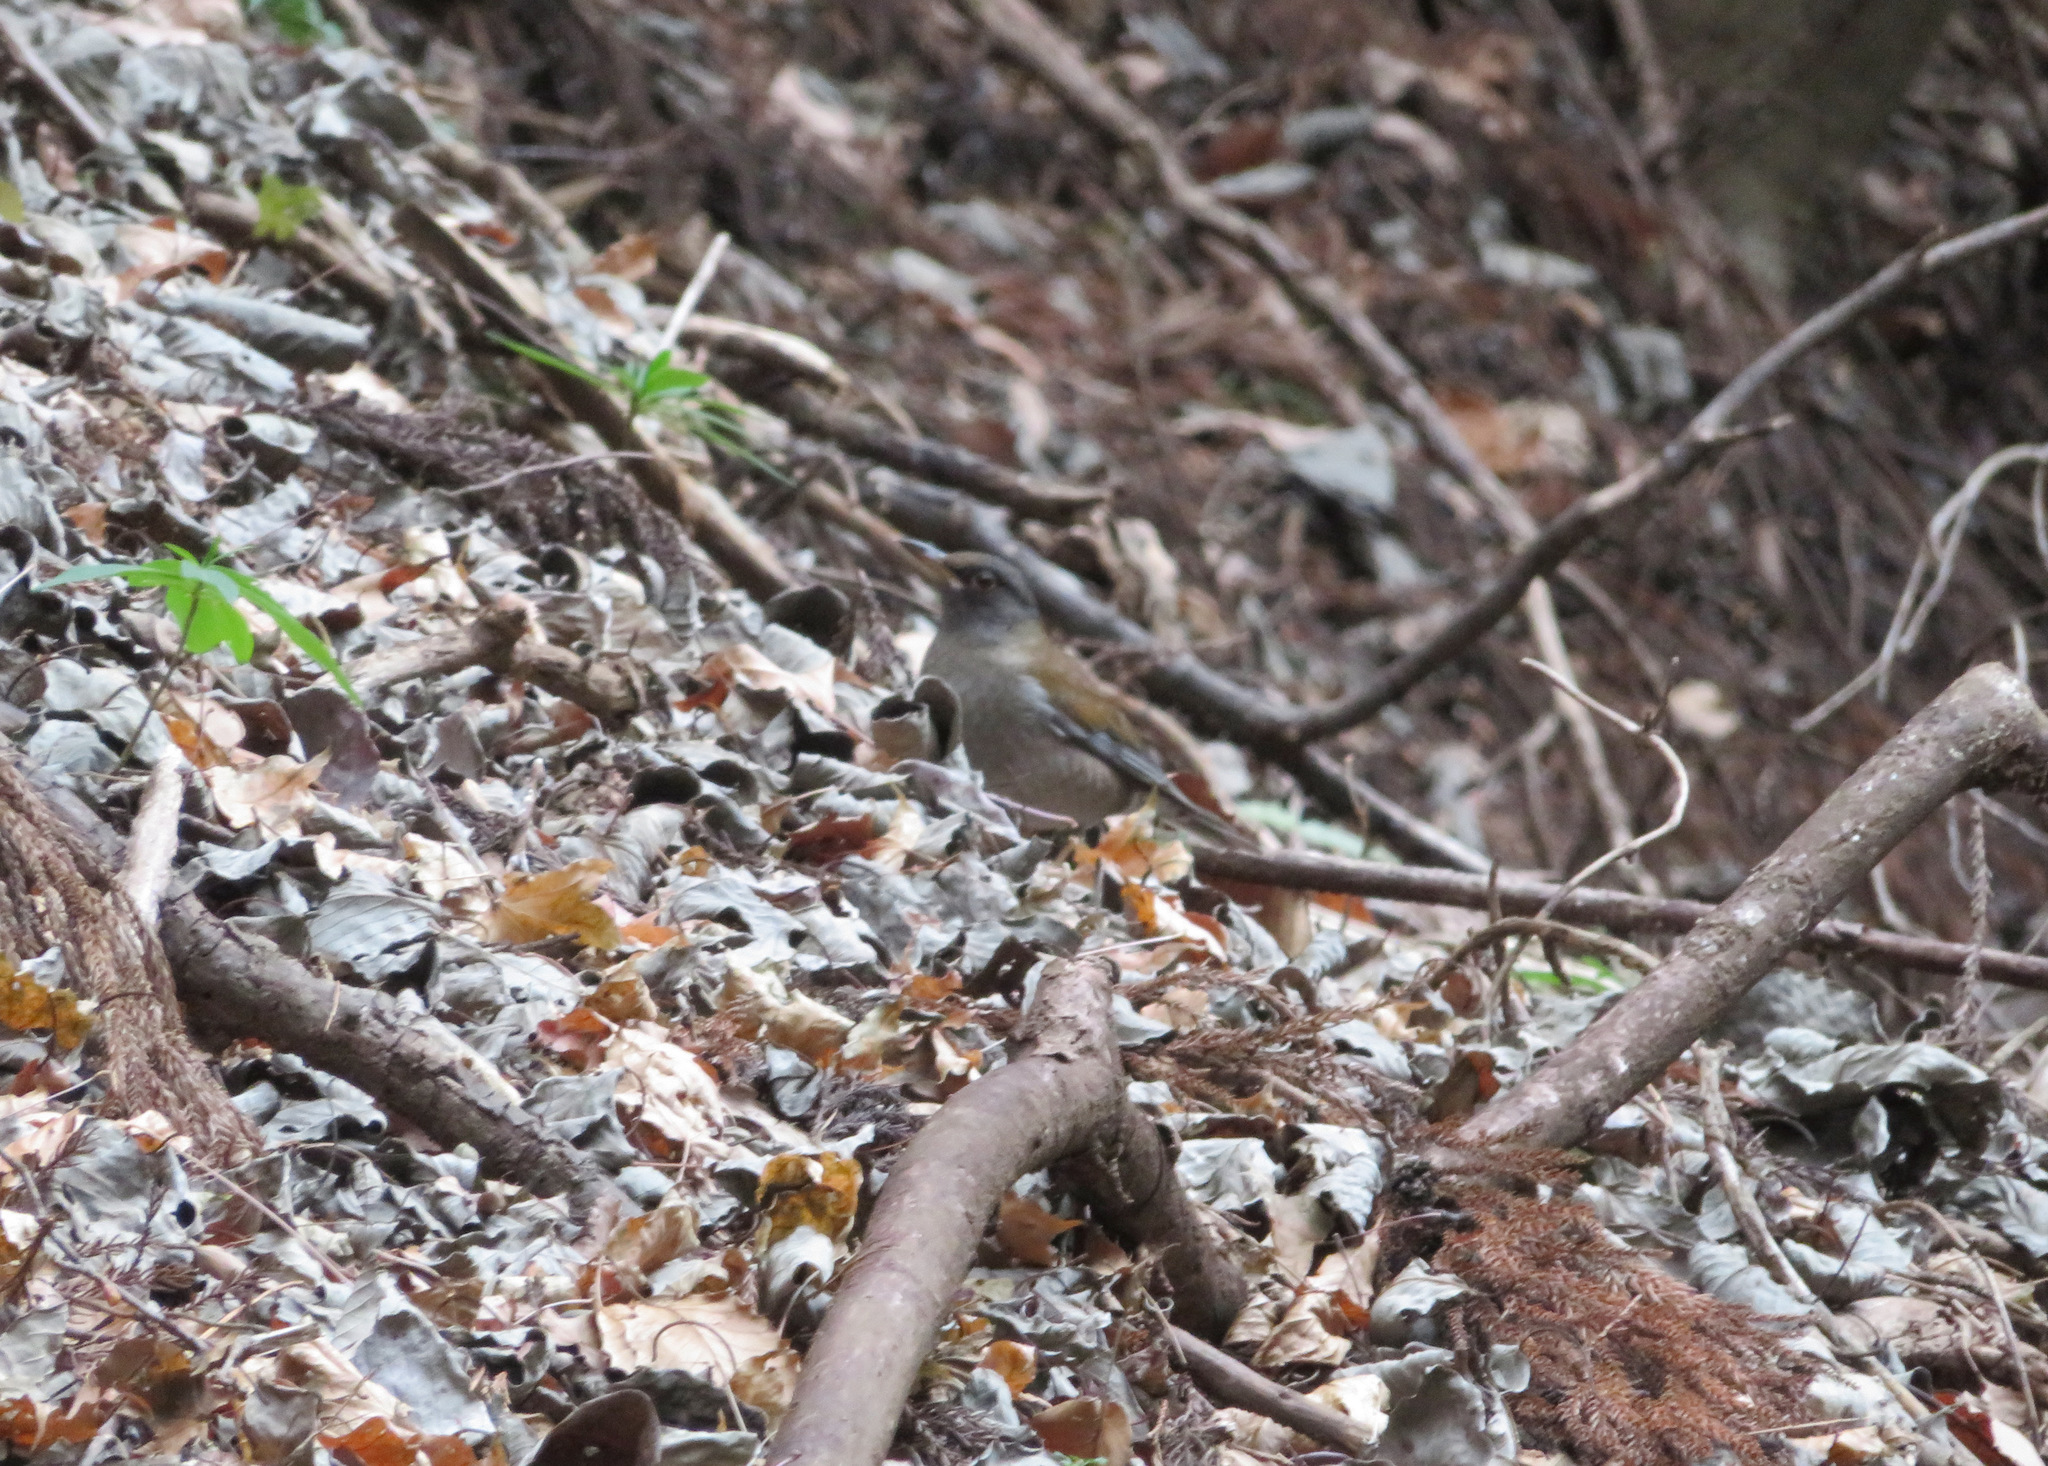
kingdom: Animalia
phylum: Chordata
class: Aves
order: Passeriformes
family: Turdidae
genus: Turdus
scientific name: Turdus pallidus
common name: Pale thrush
